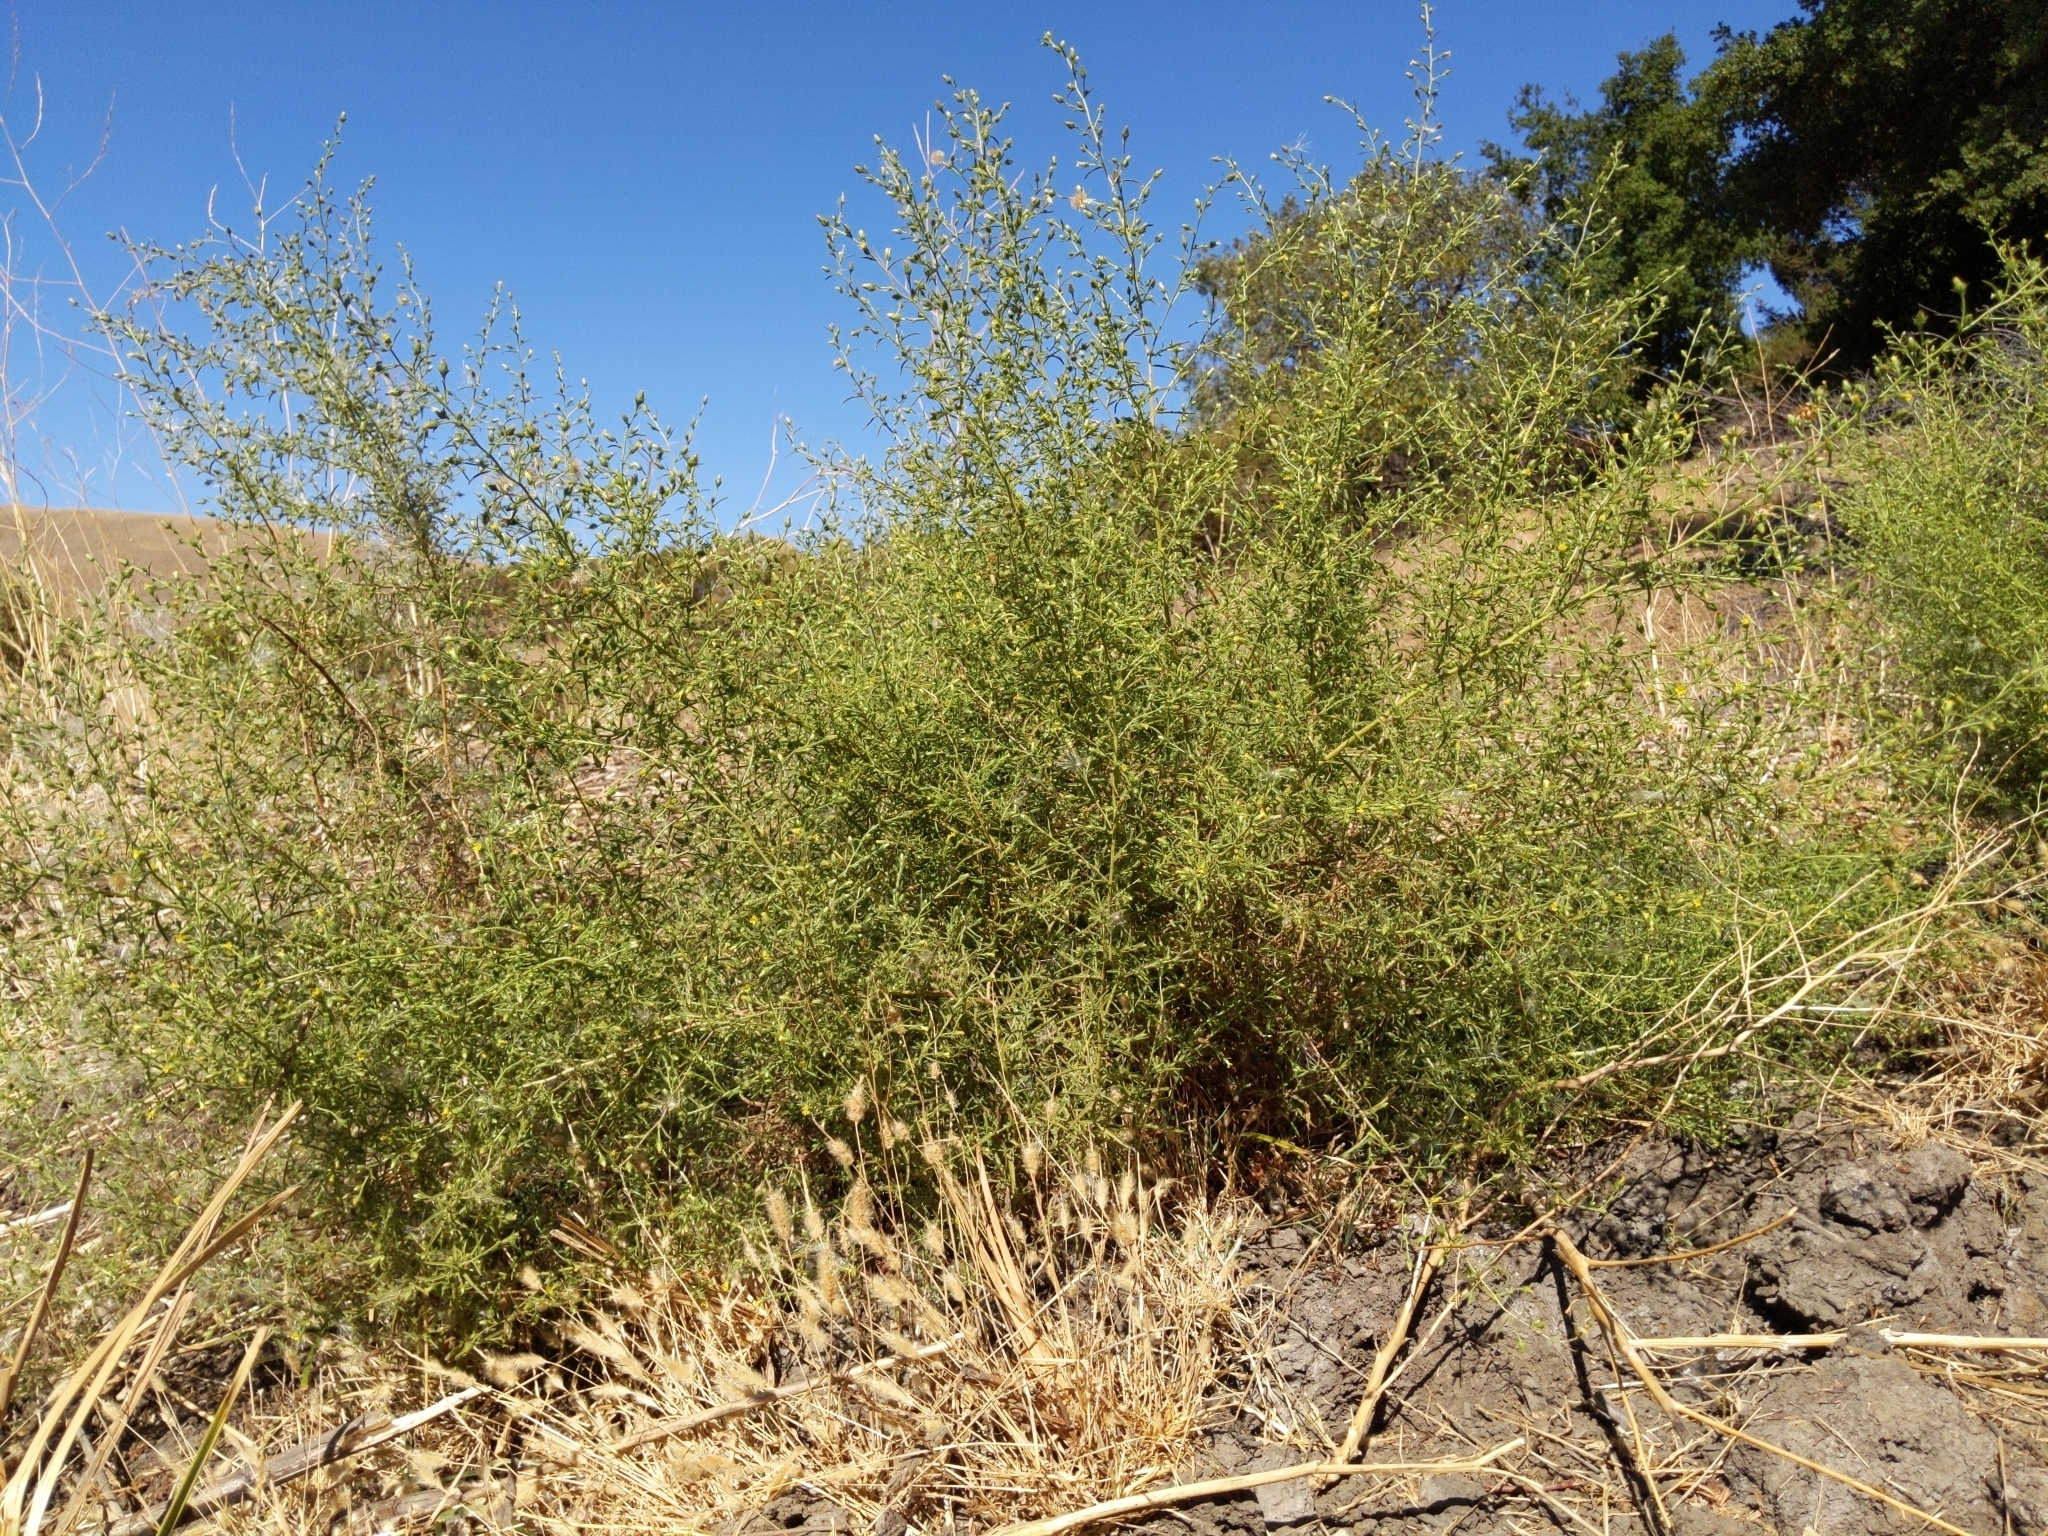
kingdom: Plantae
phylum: Tracheophyta
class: Magnoliopsida
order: Asterales
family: Asteraceae
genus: Dittrichia
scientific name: Dittrichia graveolens
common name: Stinking fleabane
